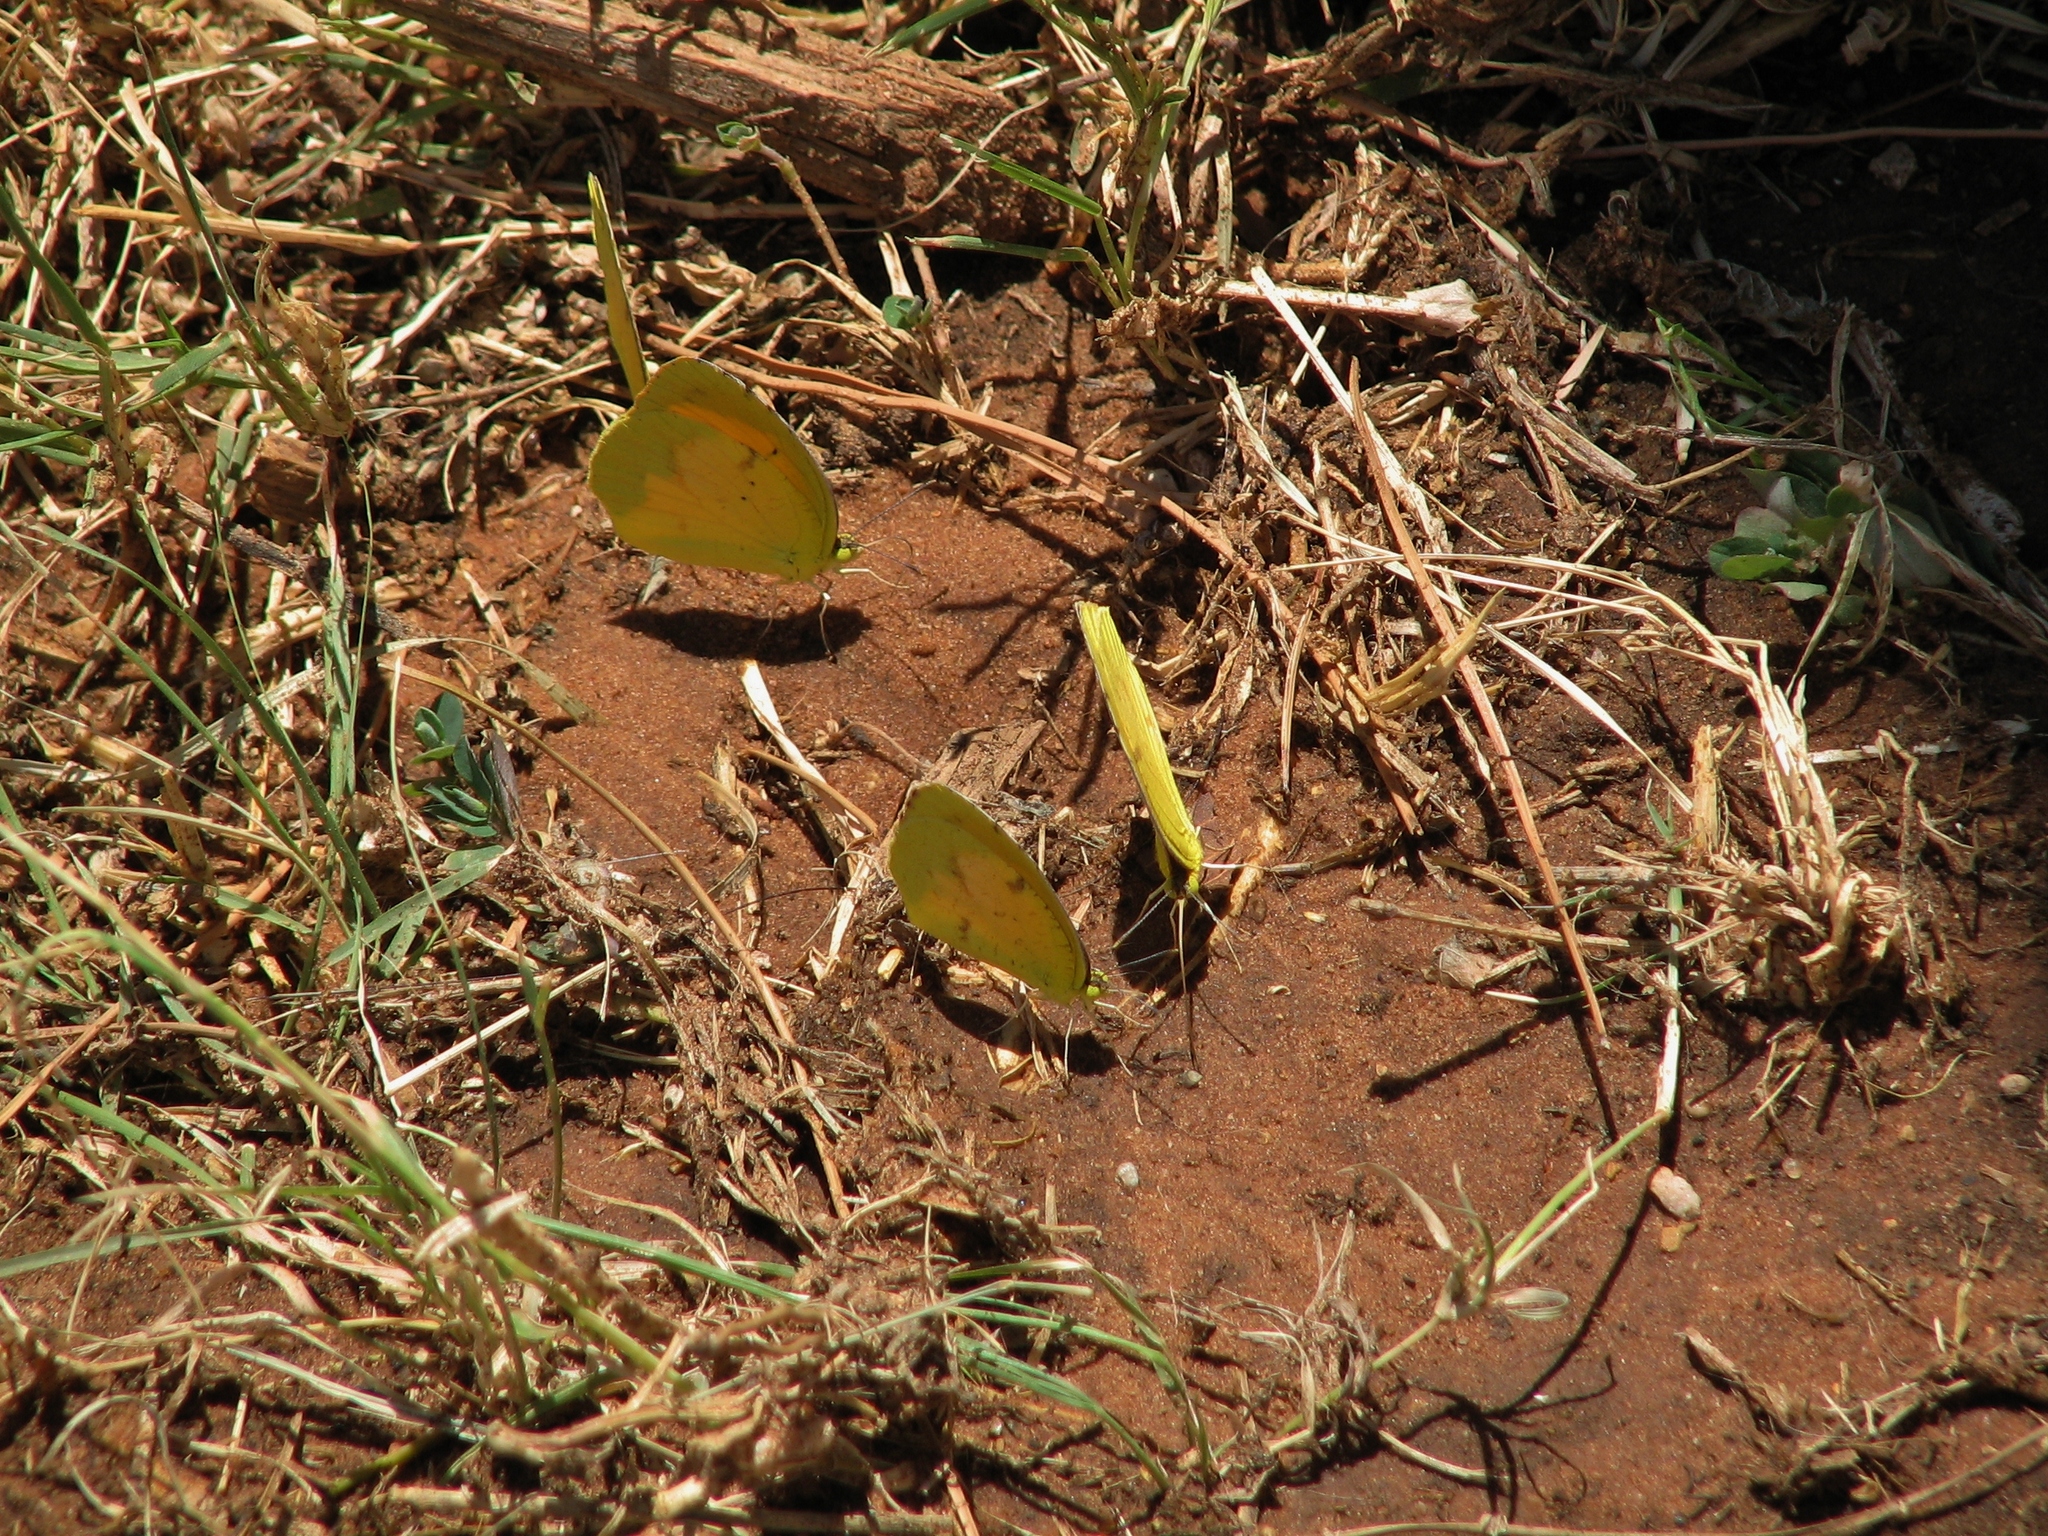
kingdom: Animalia
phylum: Arthropoda
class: Insecta
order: Lepidoptera
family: Pieridae
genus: Abaeis
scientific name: Abaeis nicippe
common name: Sleepy orange
